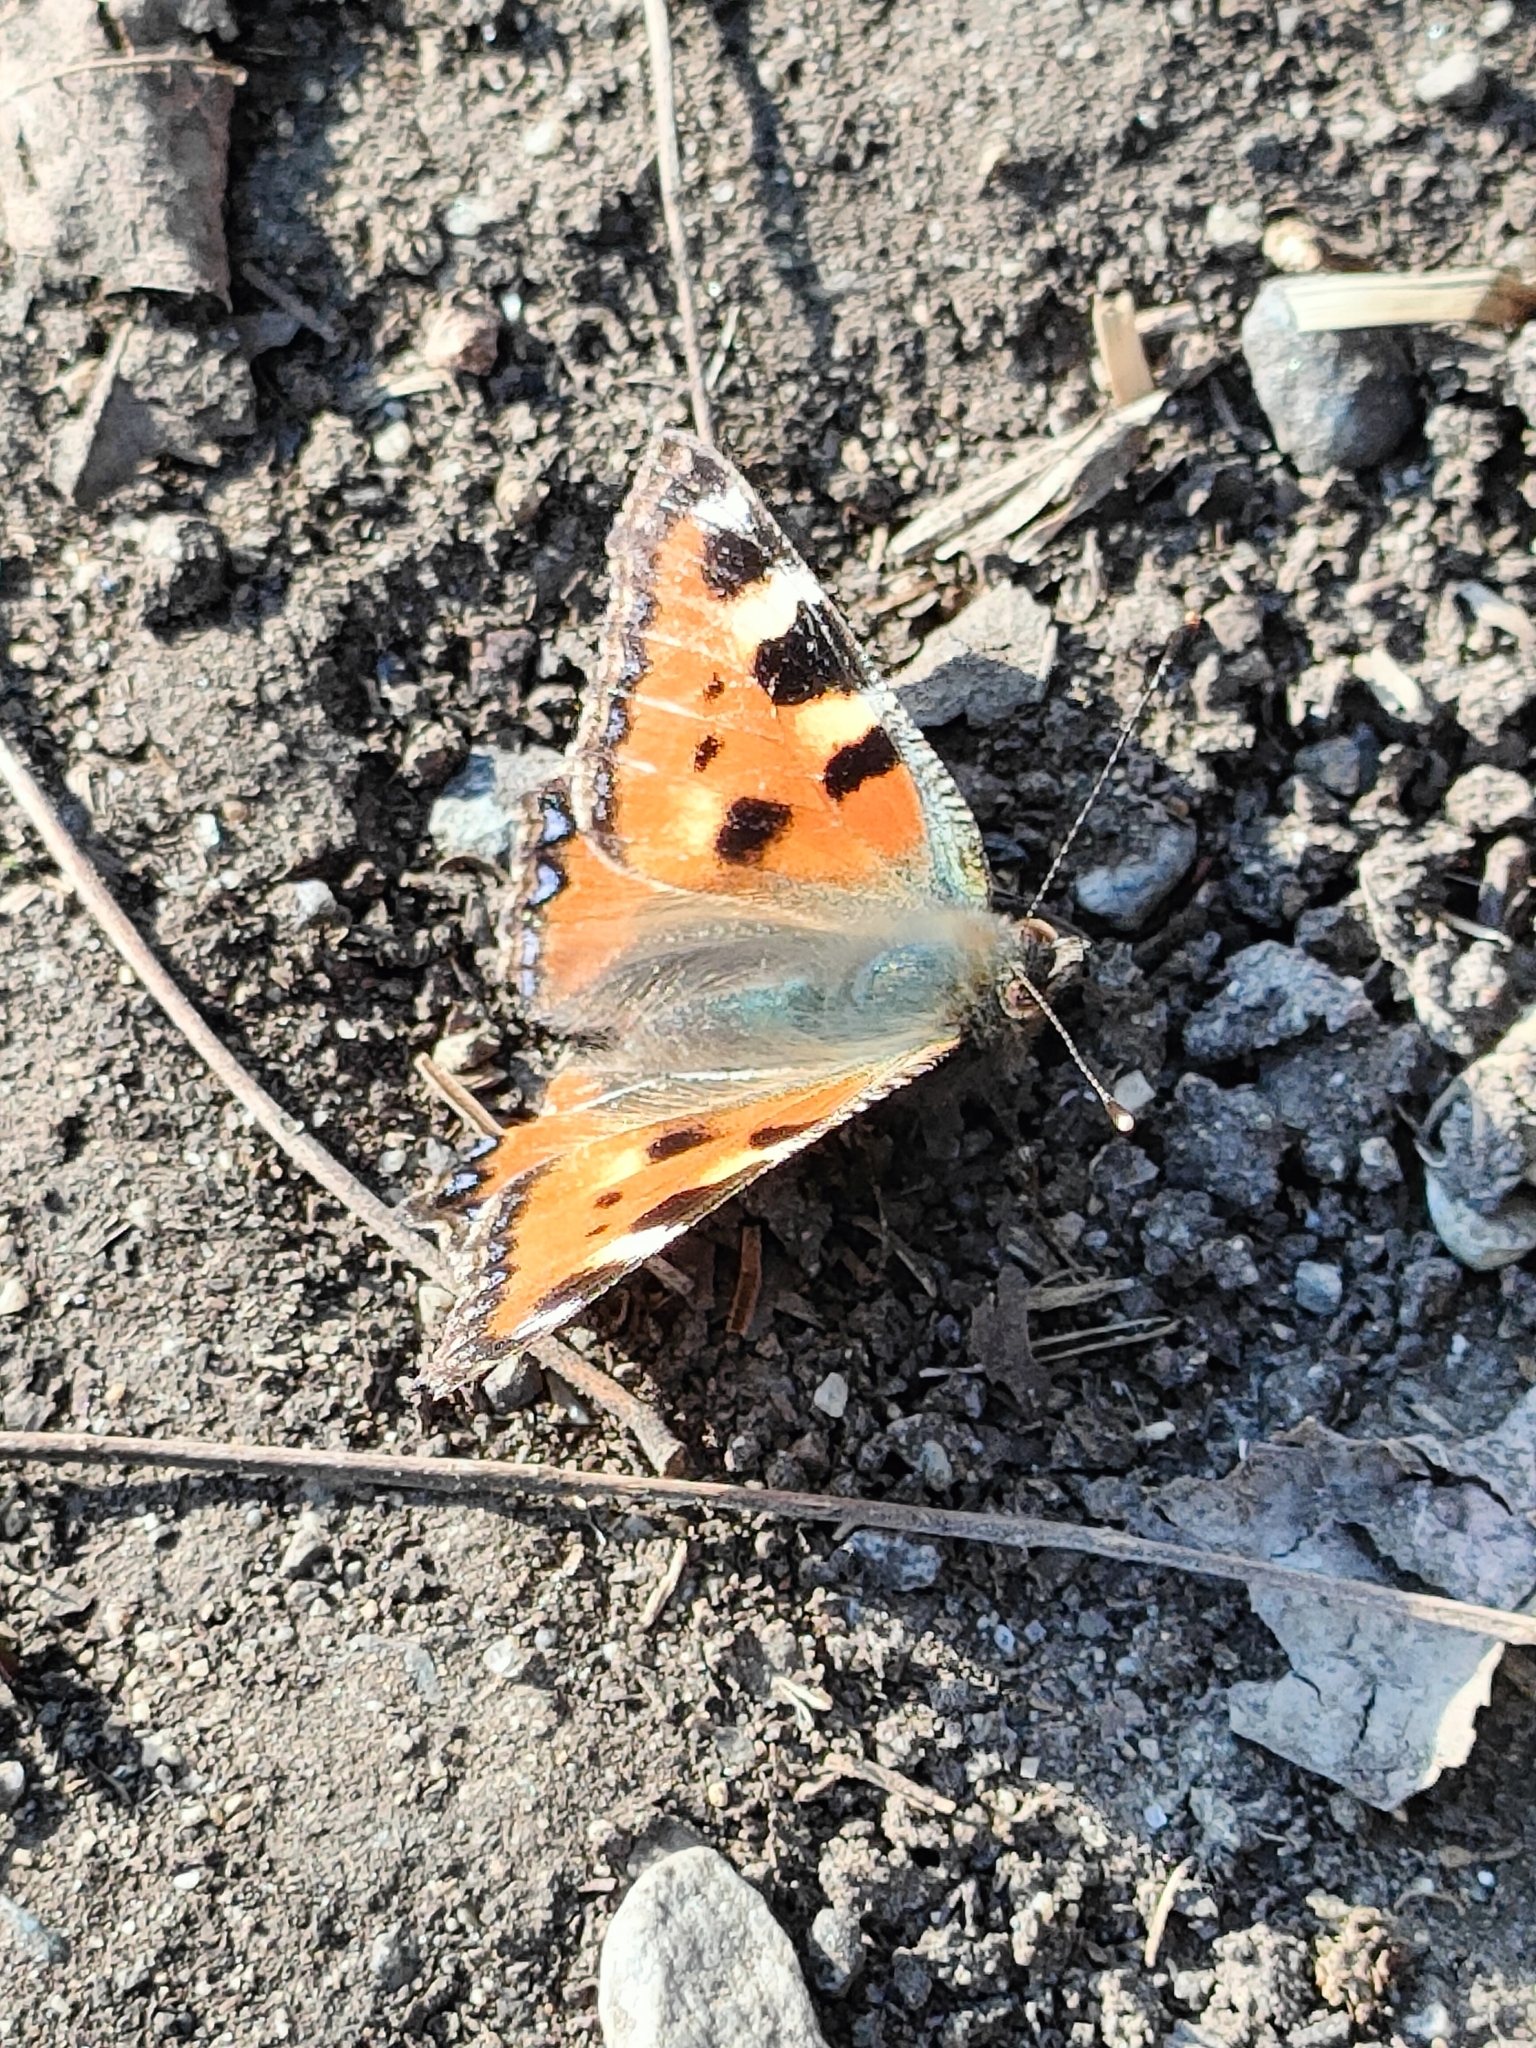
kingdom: Animalia
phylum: Arthropoda
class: Insecta
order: Lepidoptera
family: Nymphalidae
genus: Aglais
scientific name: Aglais urticae
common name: Small tortoiseshell
